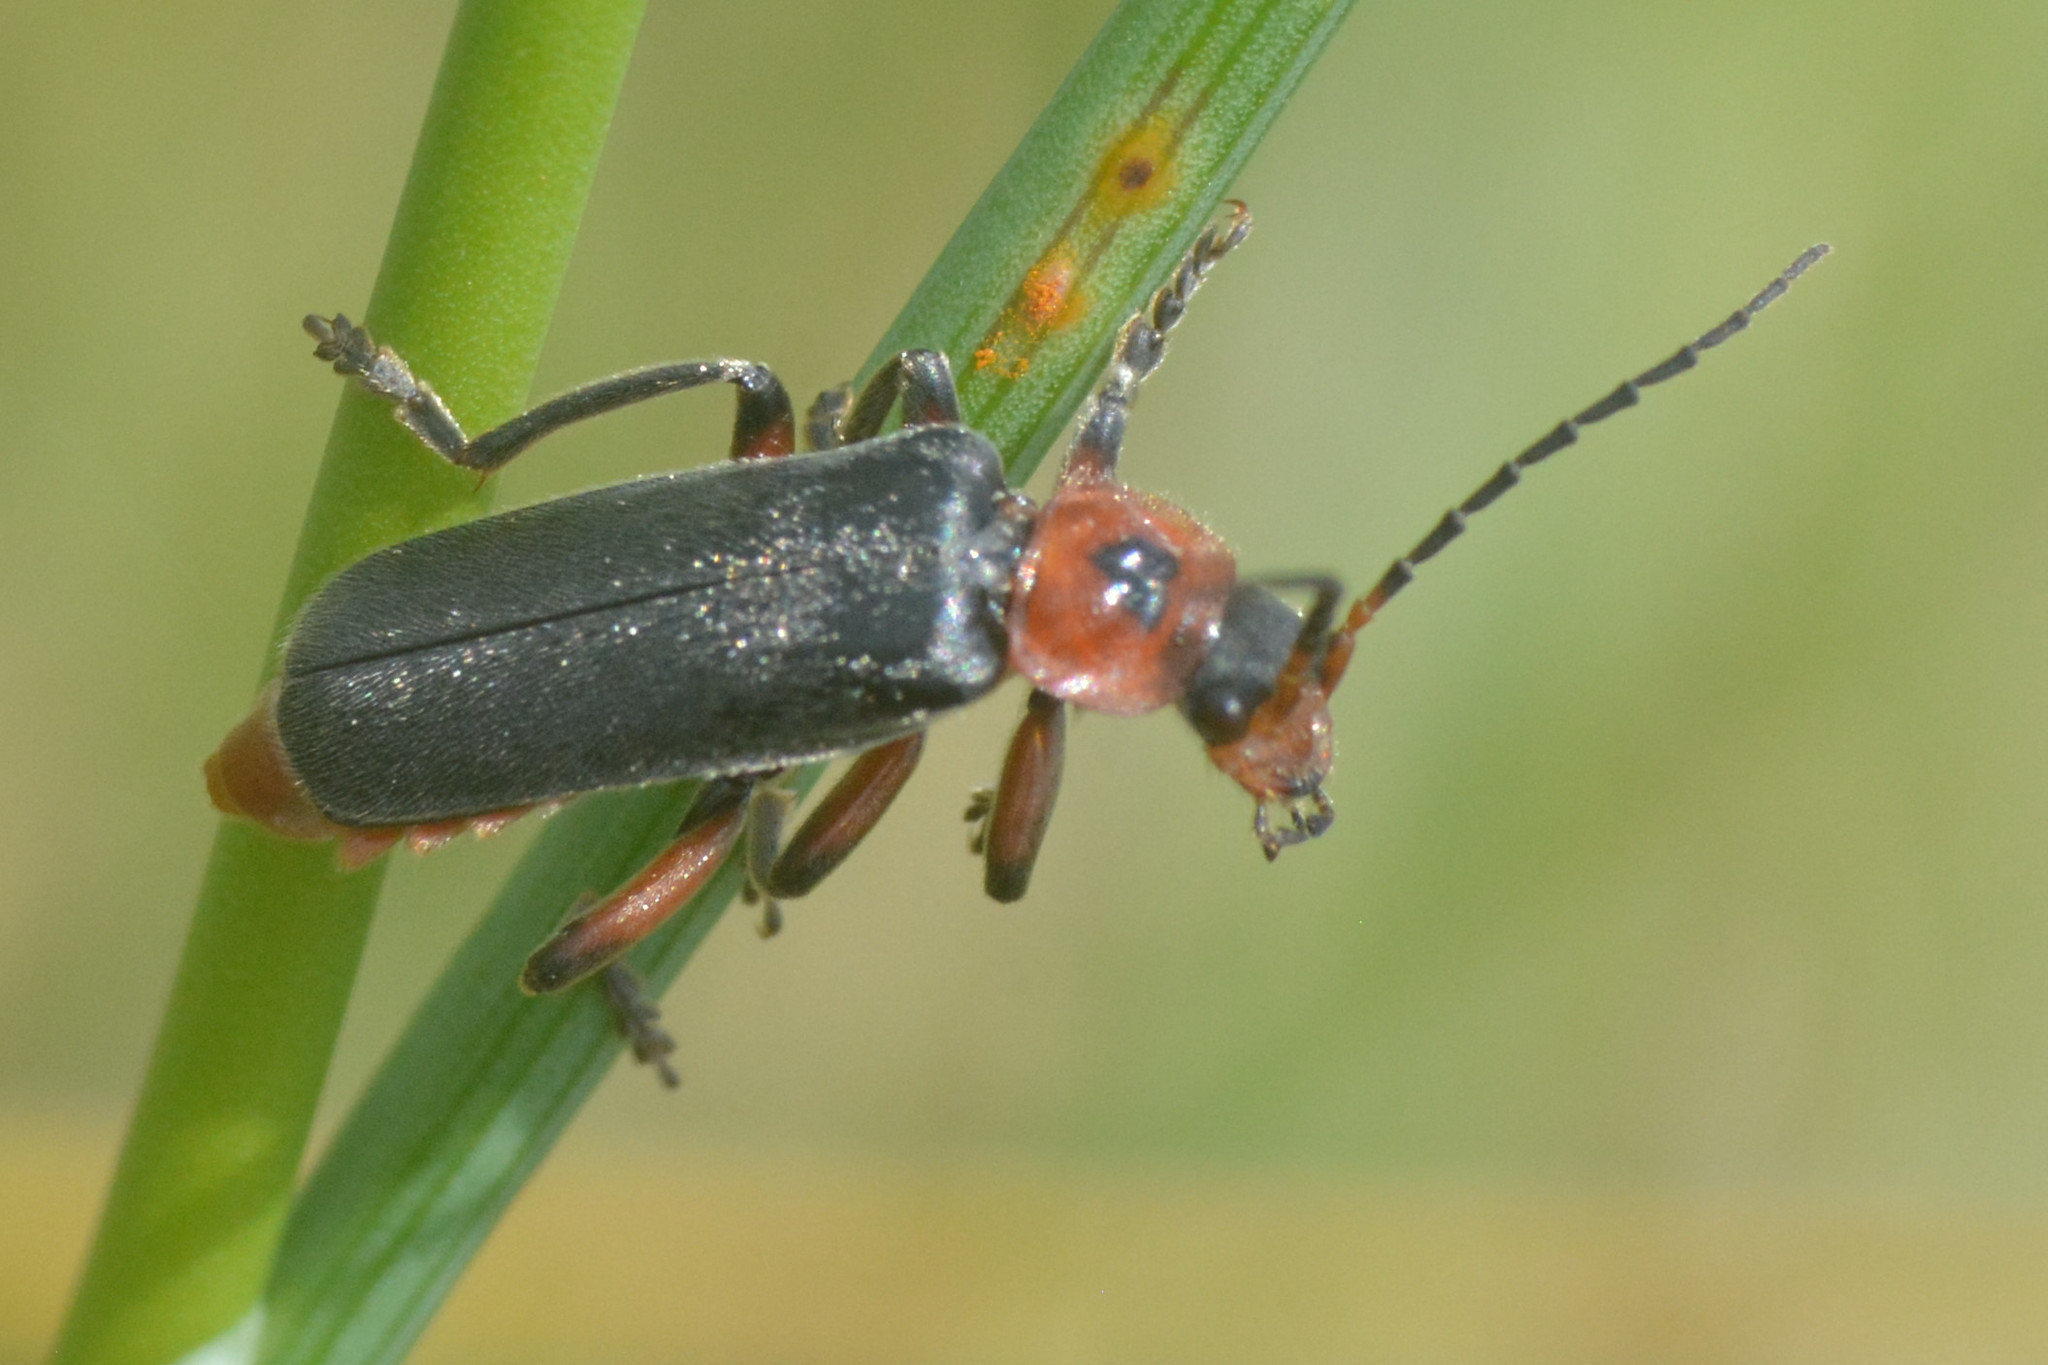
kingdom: Animalia
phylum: Arthropoda
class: Insecta
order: Coleoptera
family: Cantharidae
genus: Cantharis
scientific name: Cantharis rustica
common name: Soldier beetle
